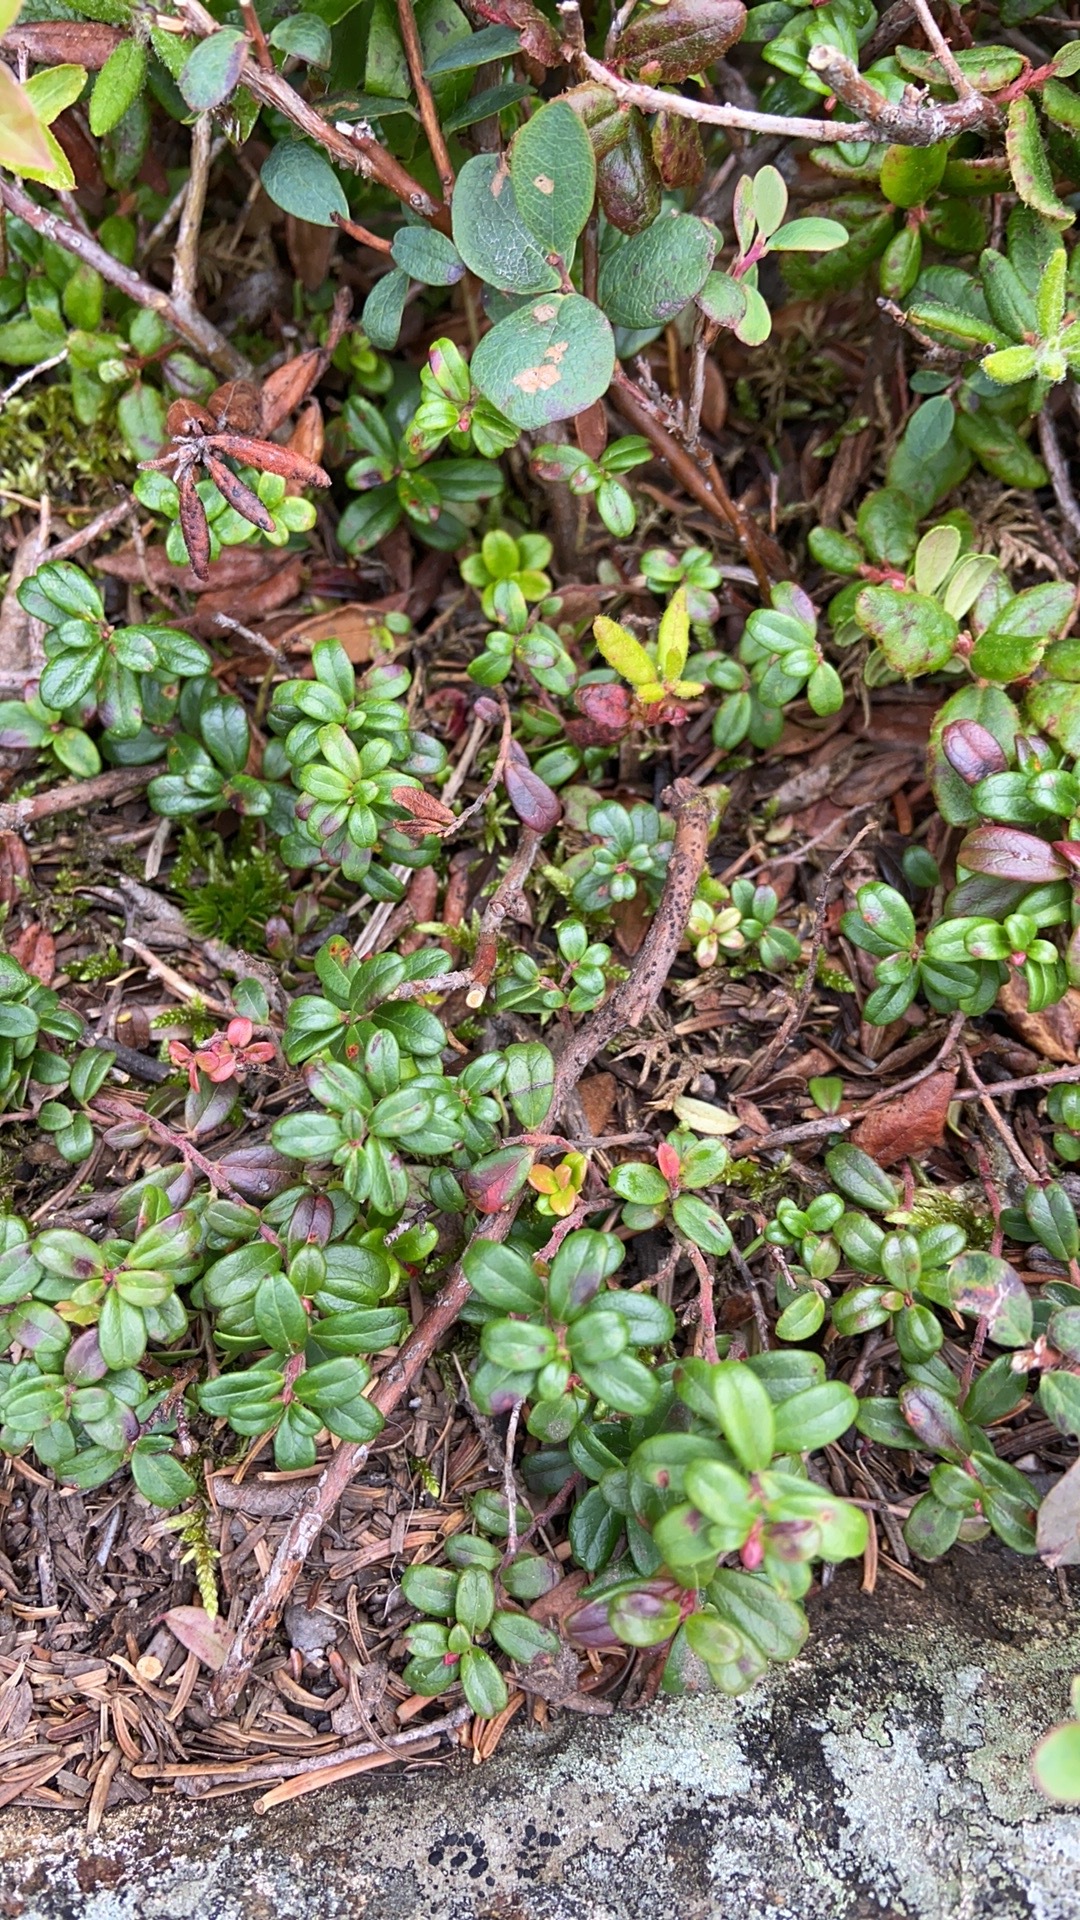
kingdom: Plantae
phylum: Tracheophyta
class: Magnoliopsida
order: Ericales
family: Ericaceae
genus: Vaccinium
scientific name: Vaccinium vitis-idaea
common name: Cowberry
